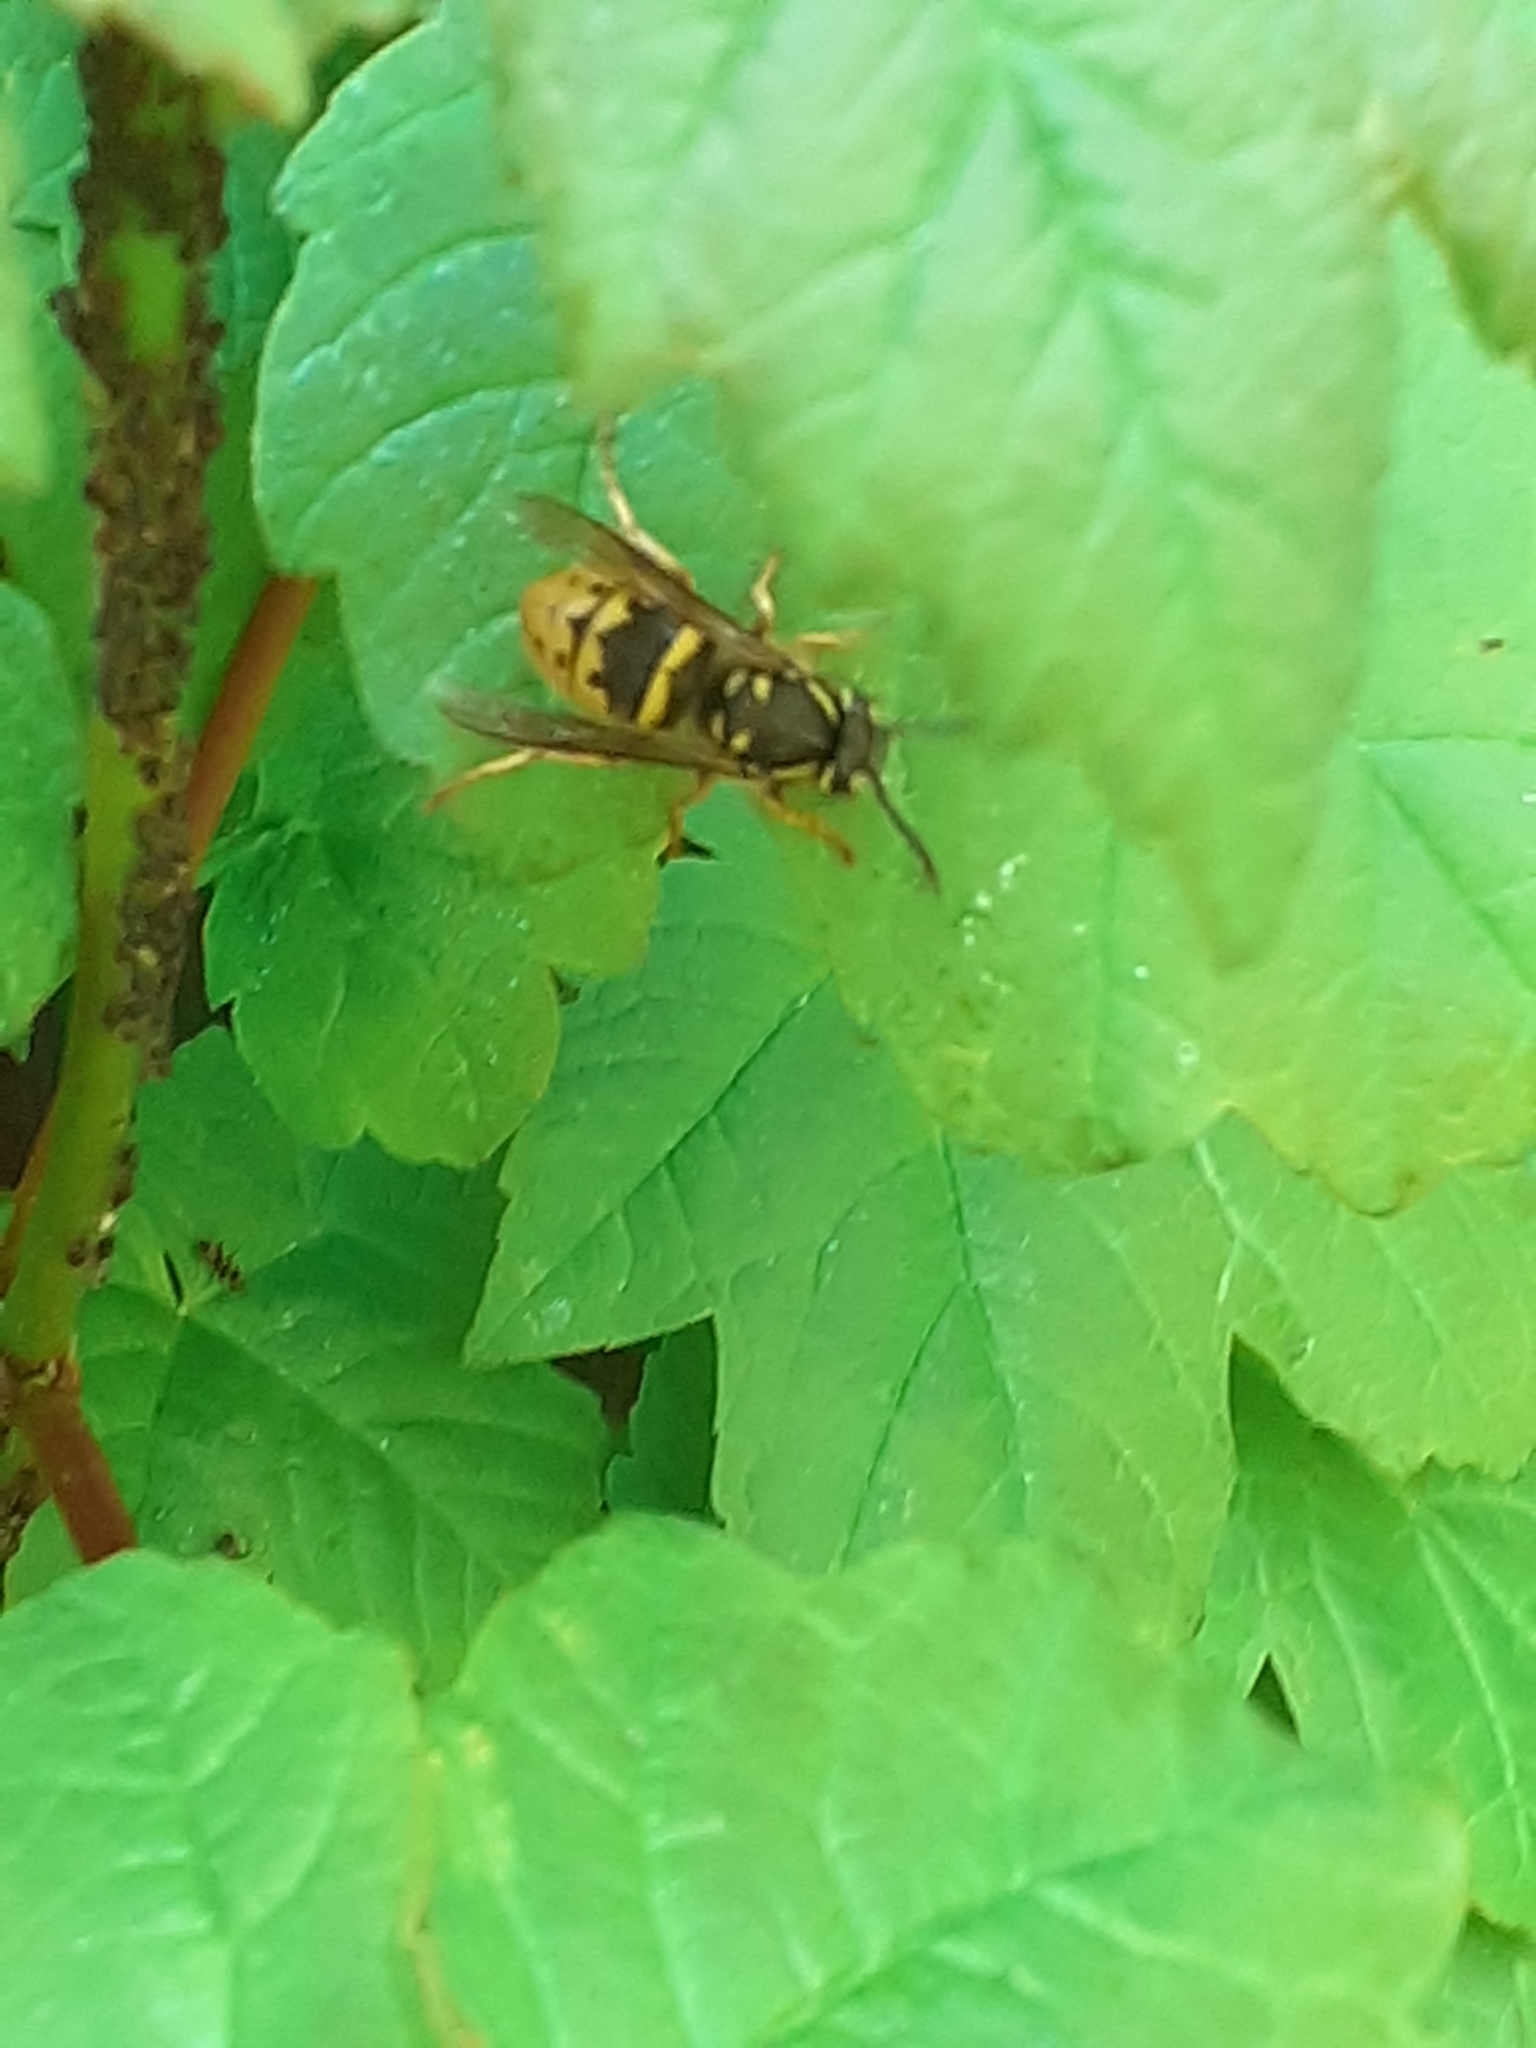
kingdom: Animalia
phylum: Arthropoda
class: Insecta
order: Hymenoptera
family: Vespidae
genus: Vespula
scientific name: Vespula vulgaris
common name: Common wasp
